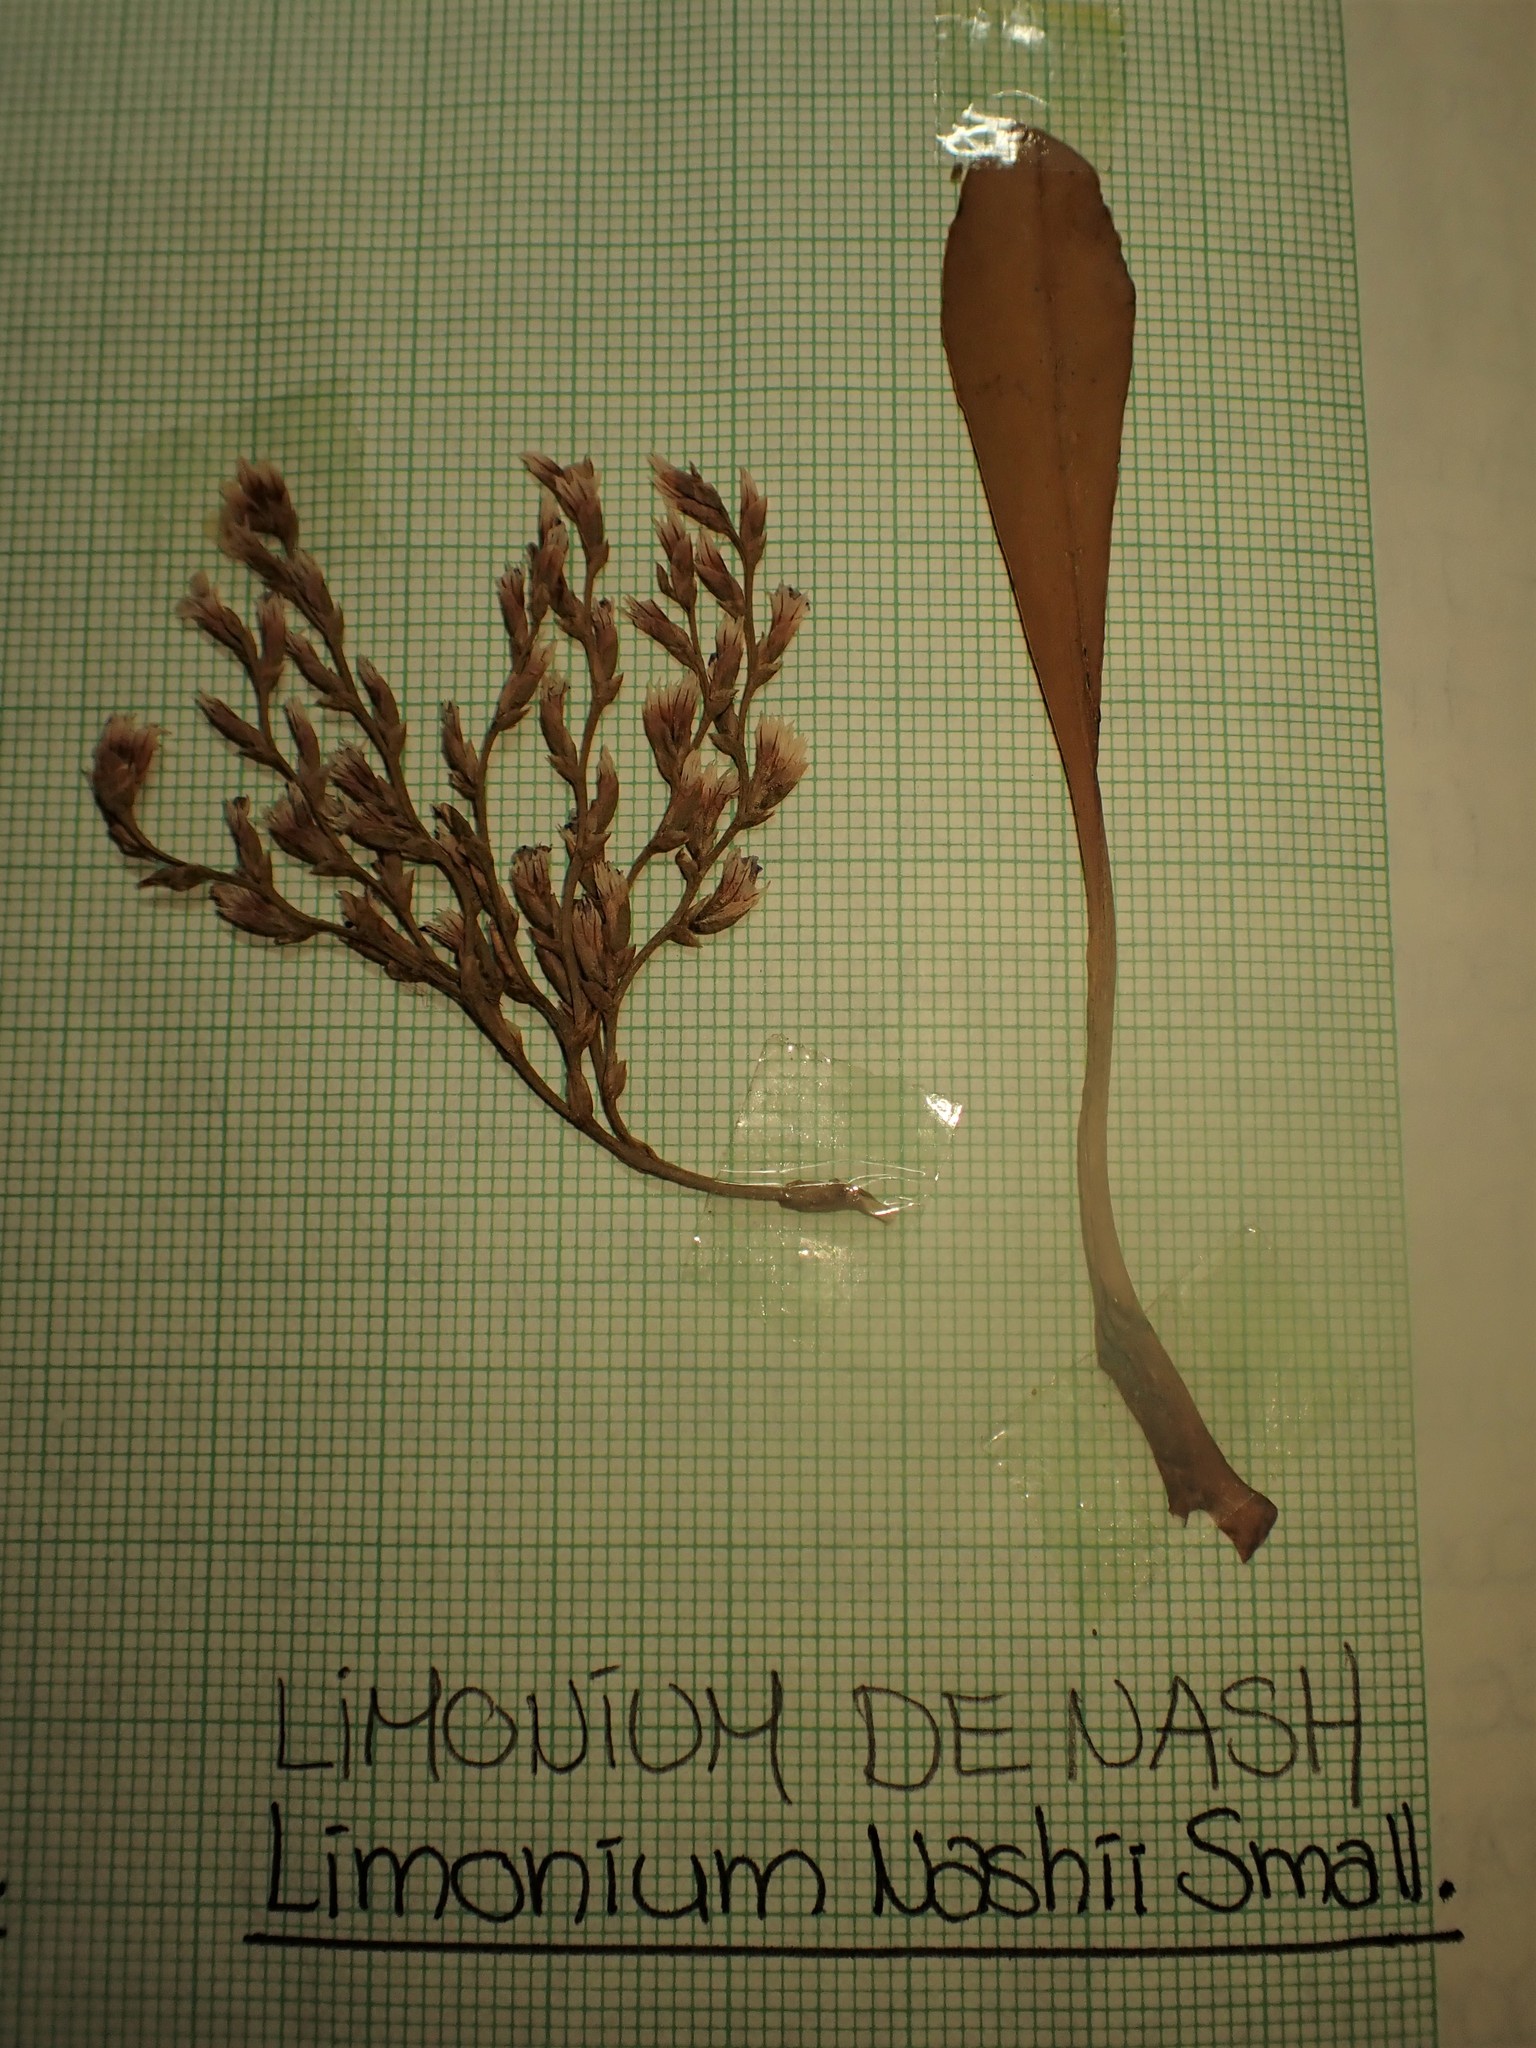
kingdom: Plantae
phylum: Tracheophyta
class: Magnoliopsida
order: Caryophyllales
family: Plumbaginaceae
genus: Limonium
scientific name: Limonium carolinianum
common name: Carolina sea lavender
